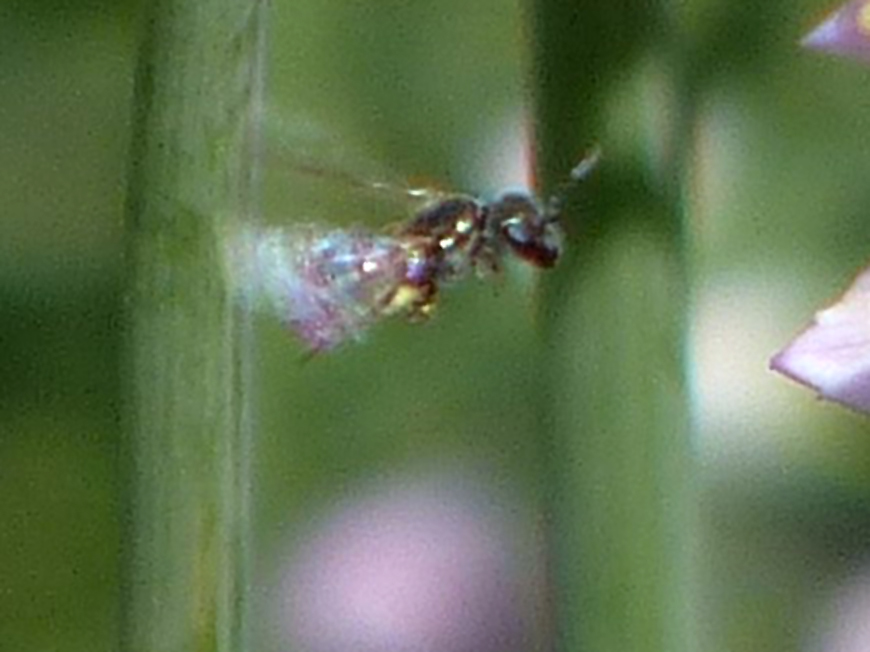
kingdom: Animalia
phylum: Arthropoda
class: Insecta
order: Hymenoptera
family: Halictidae
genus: Dialictus
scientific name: Dialictus
